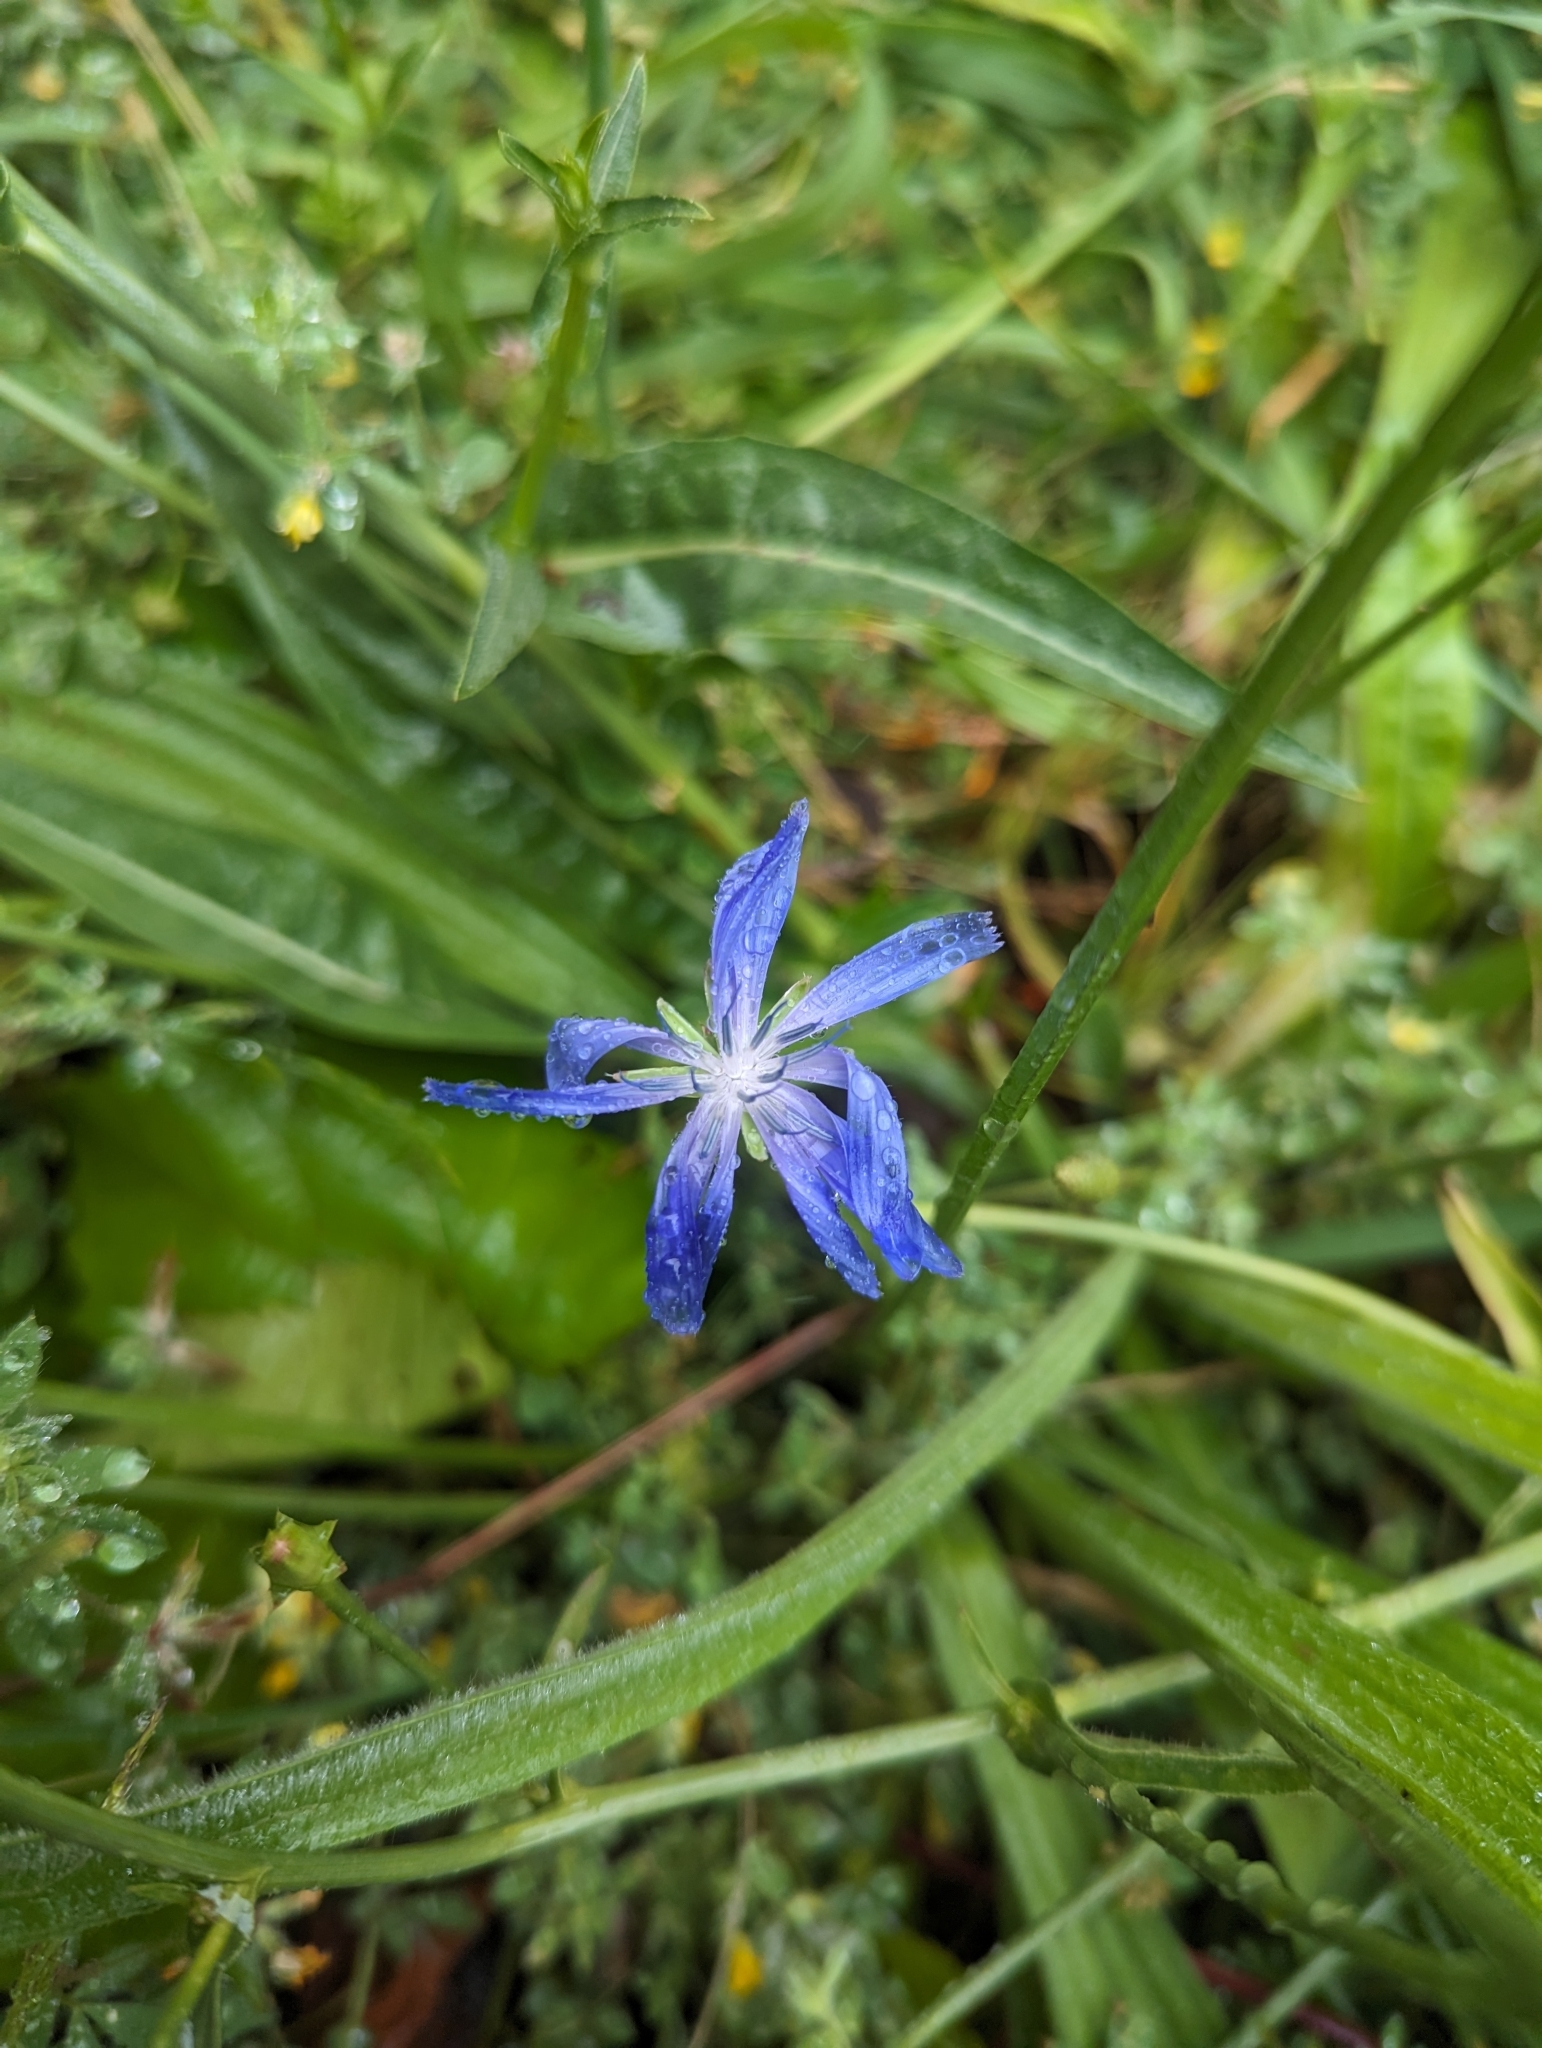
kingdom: Plantae
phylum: Tracheophyta
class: Magnoliopsida
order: Asterales
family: Asteraceae
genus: Cichorium
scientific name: Cichorium intybus
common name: Chicory
